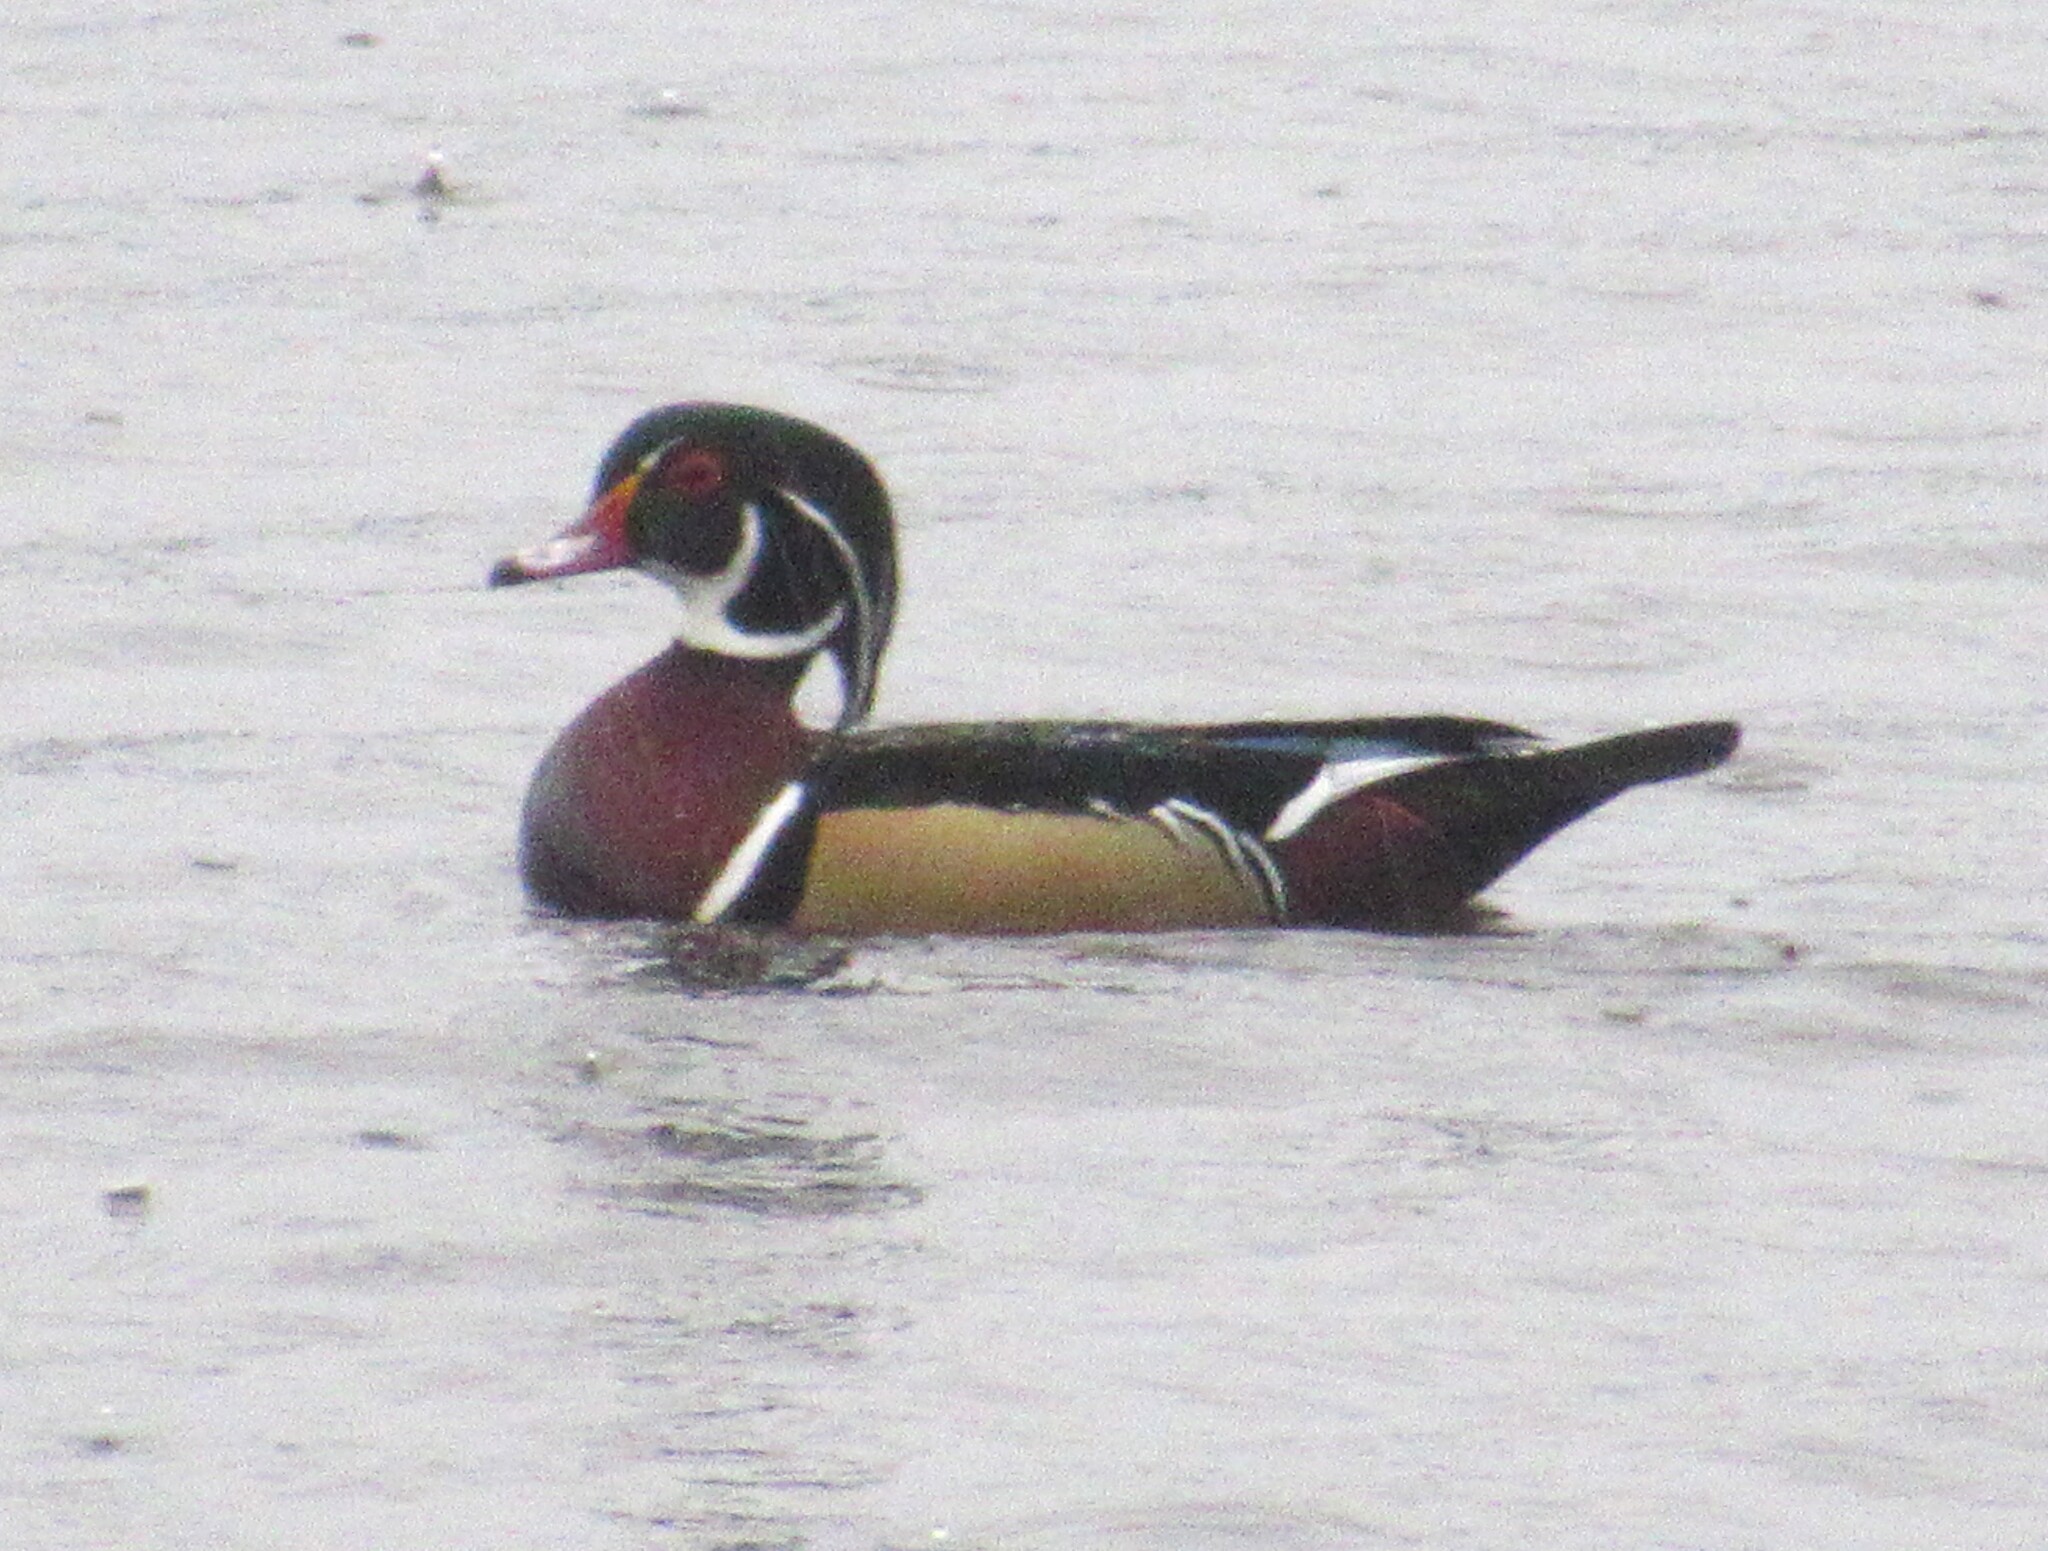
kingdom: Animalia
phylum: Chordata
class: Aves
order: Anseriformes
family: Anatidae
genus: Aix
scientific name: Aix sponsa
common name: Wood duck
